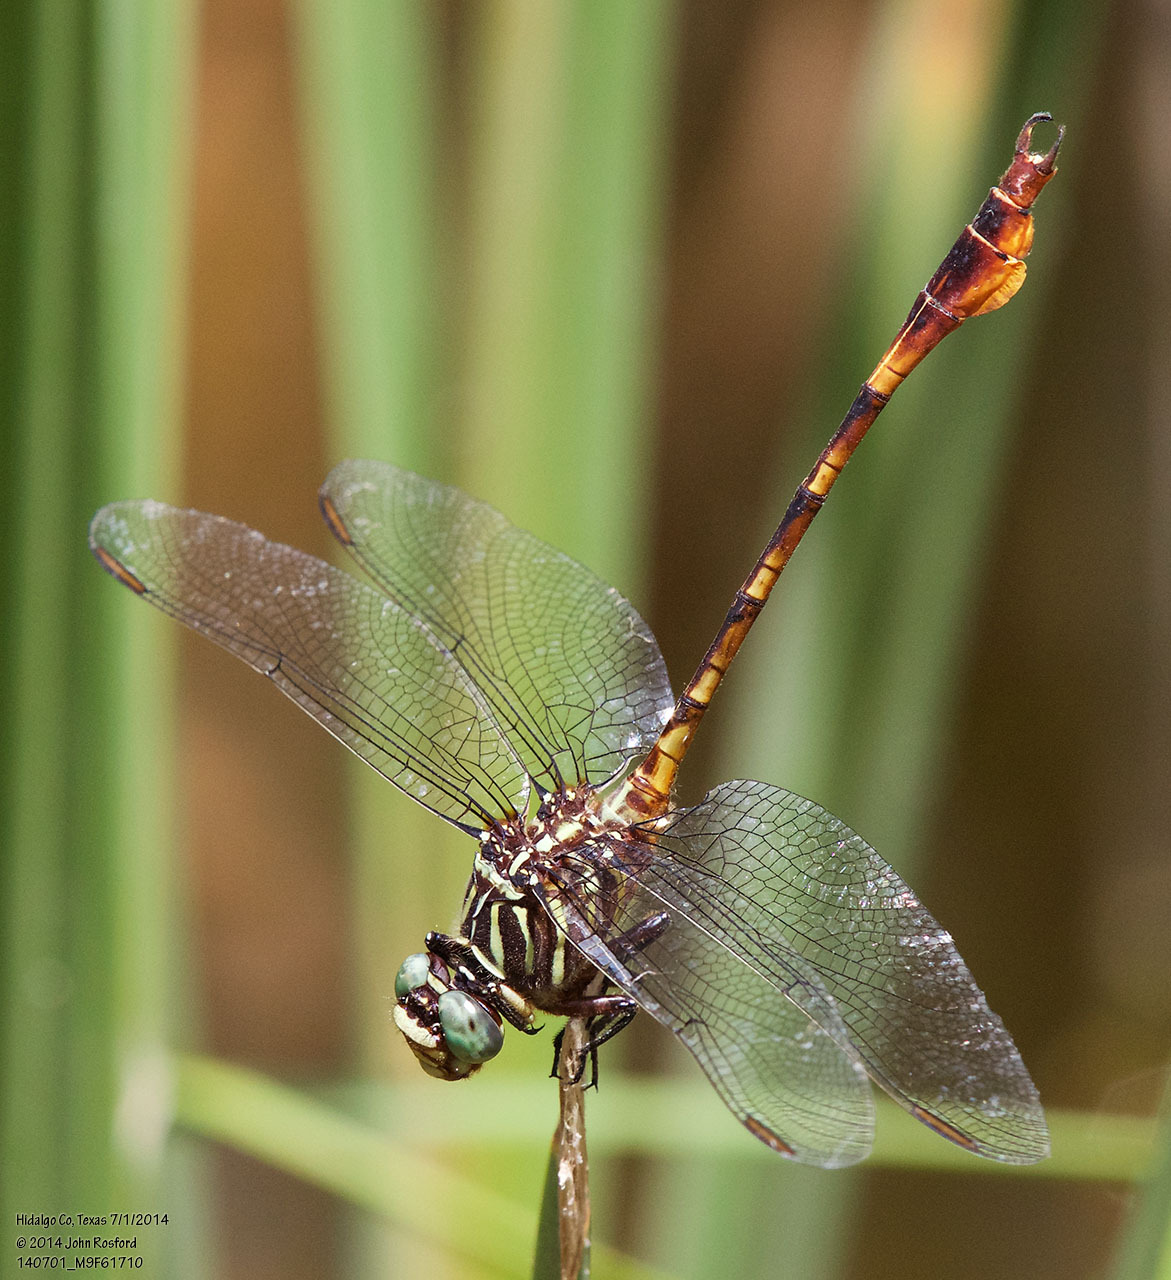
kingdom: Animalia
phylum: Arthropoda
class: Insecta
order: Odonata
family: Gomphidae
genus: Aphylla
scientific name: Aphylla protracta
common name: Narrow-striped forceptail
